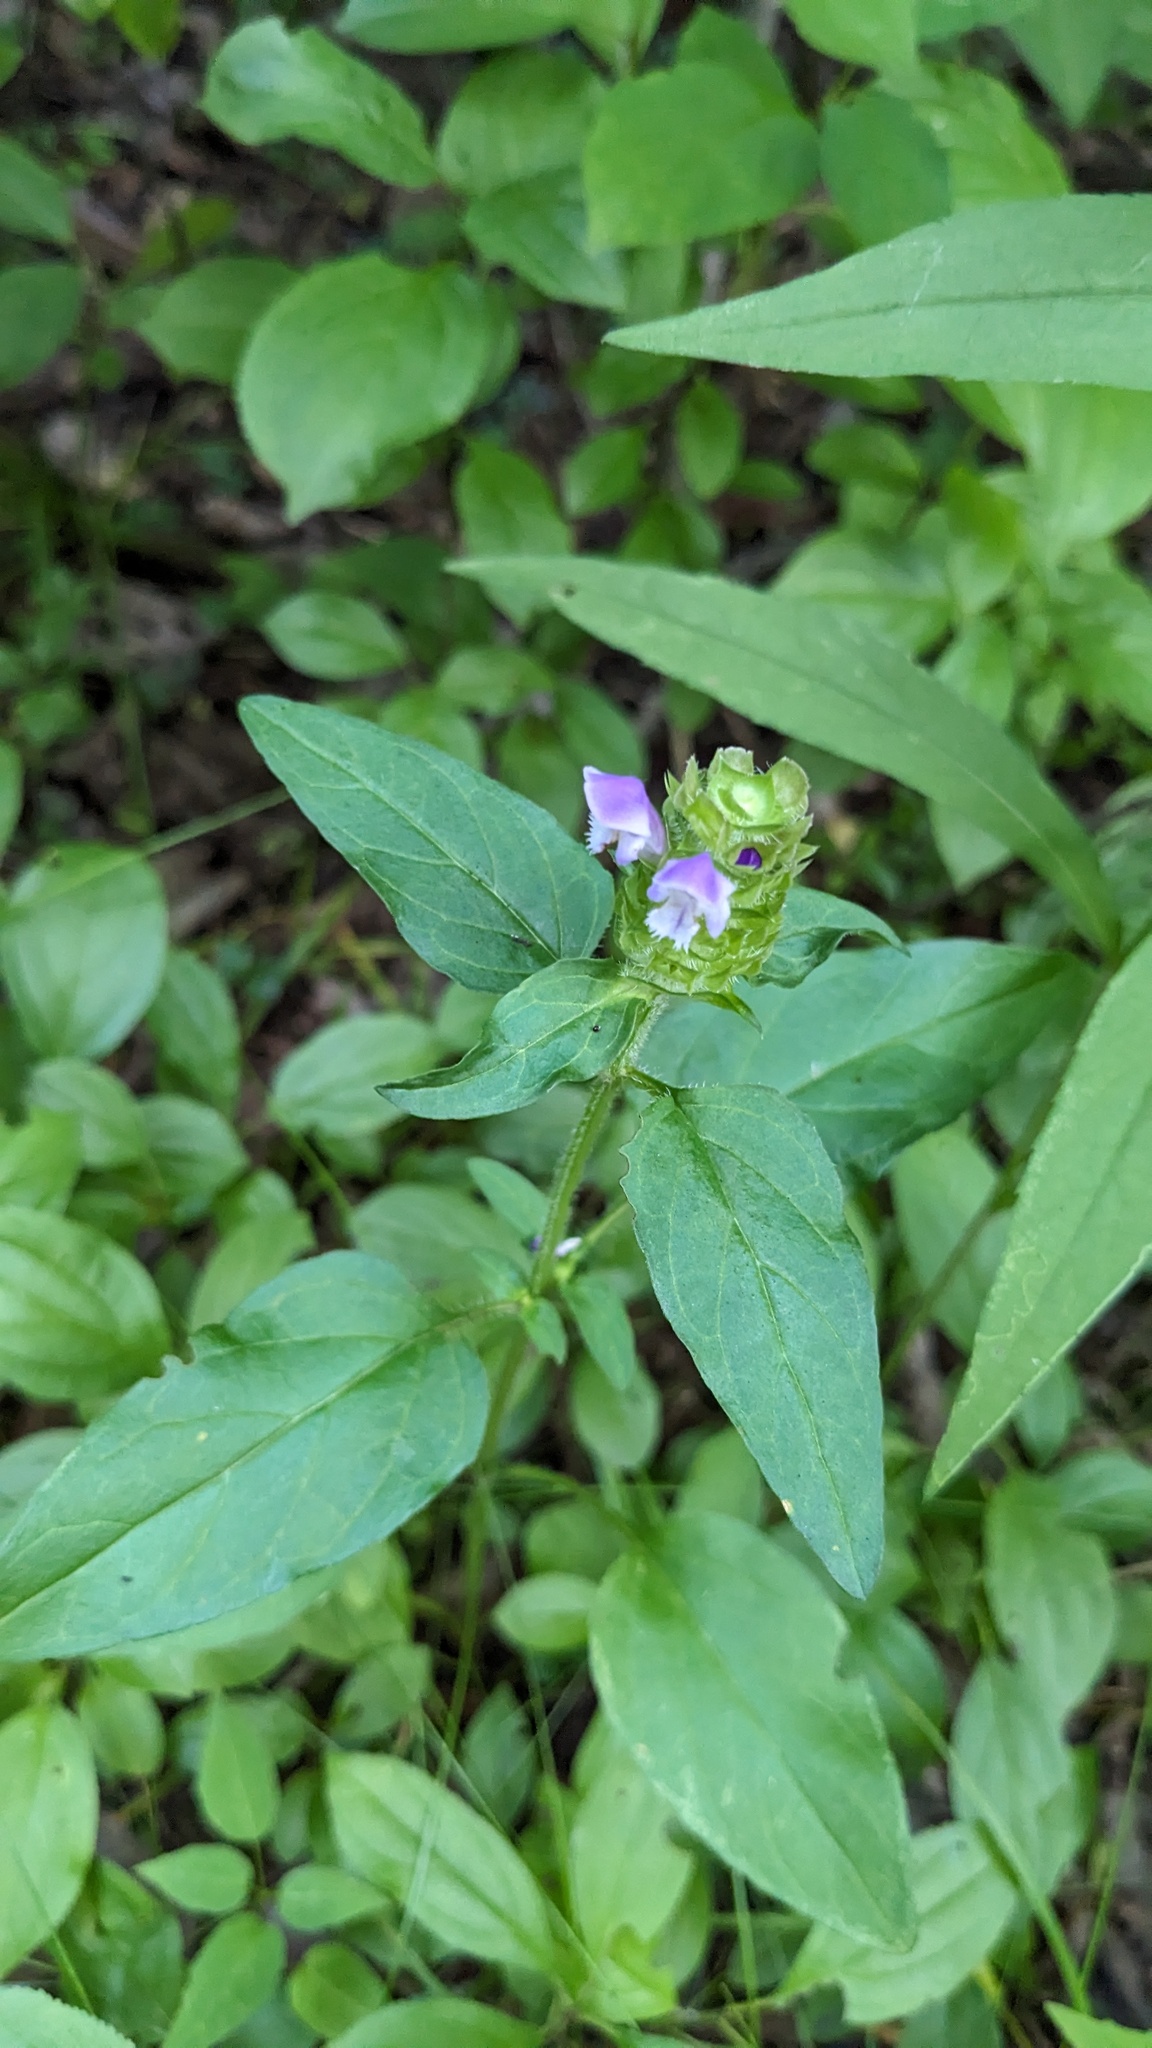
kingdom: Plantae
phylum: Tracheophyta
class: Magnoliopsida
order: Lamiales
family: Lamiaceae
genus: Prunella
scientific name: Prunella vulgaris
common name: Heal-all
